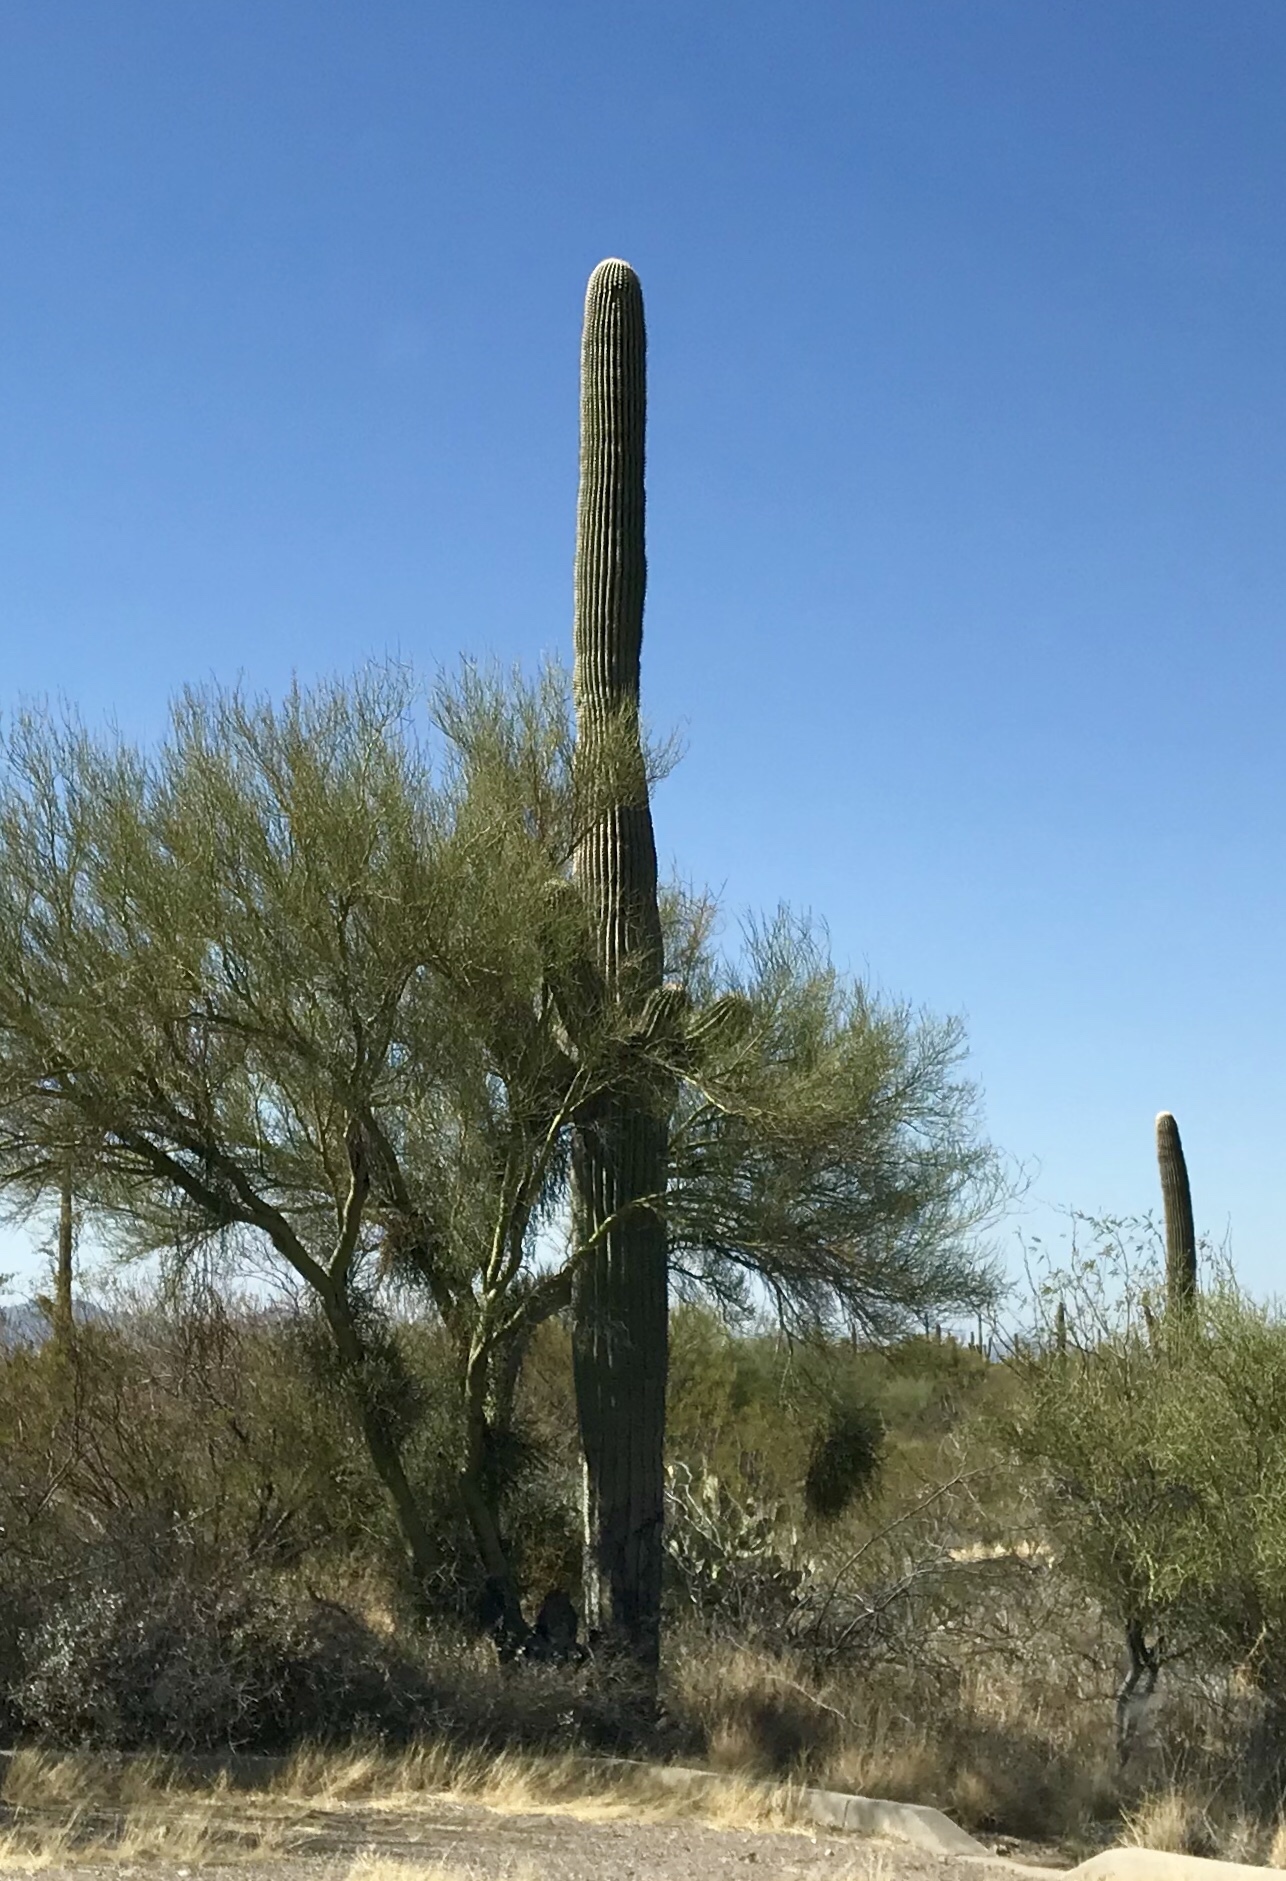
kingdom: Plantae
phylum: Tracheophyta
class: Magnoliopsida
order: Caryophyllales
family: Cactaceae
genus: Carnegiea
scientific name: Carnegiea gigantea
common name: Saguaro
